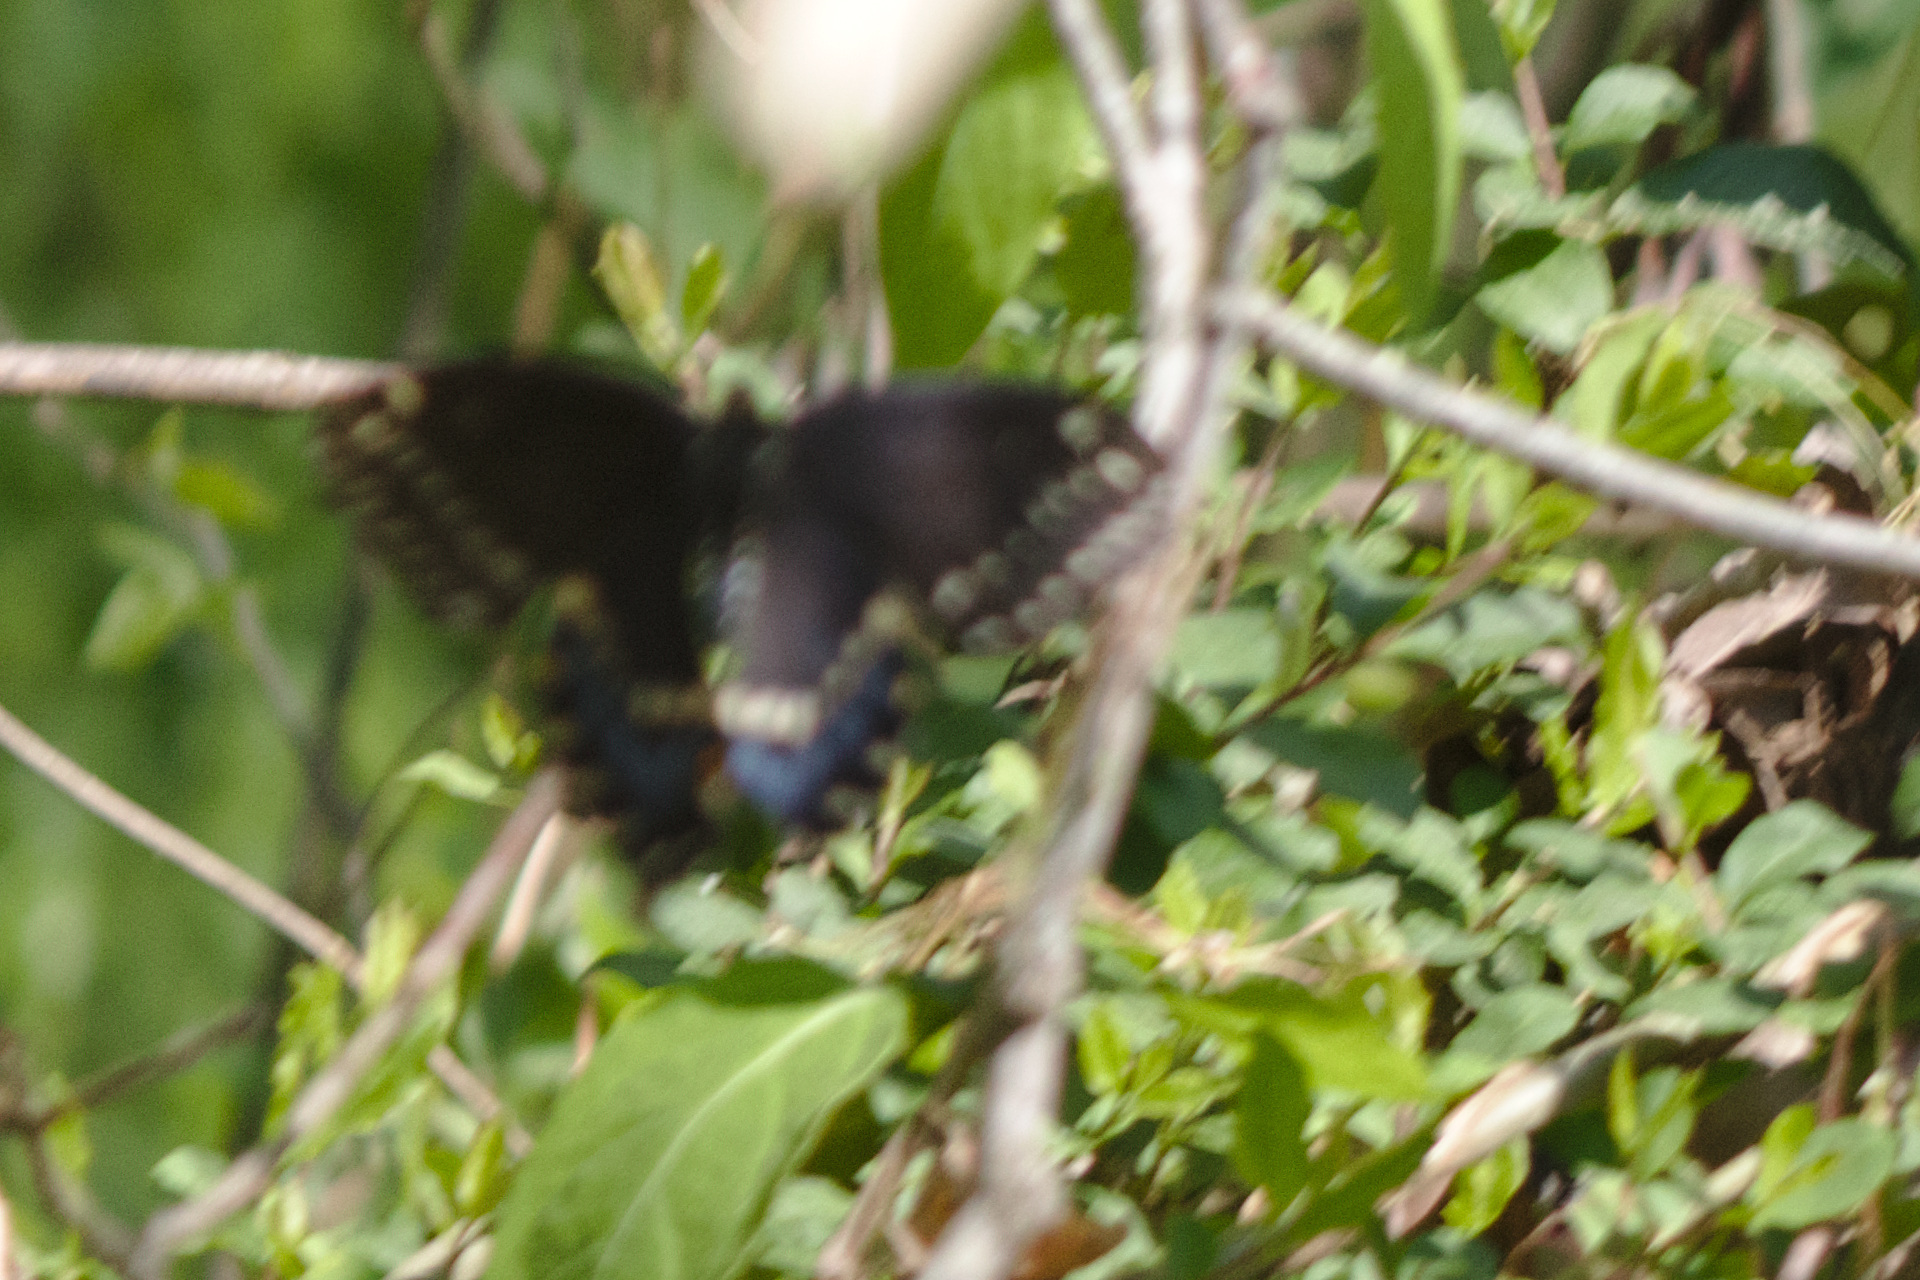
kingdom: Animalia
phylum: Arthropoda
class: Insecta
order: Lepidoptera
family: Papilionidae
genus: Papilio
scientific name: Papilio polyxenes
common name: Black swallowtail
